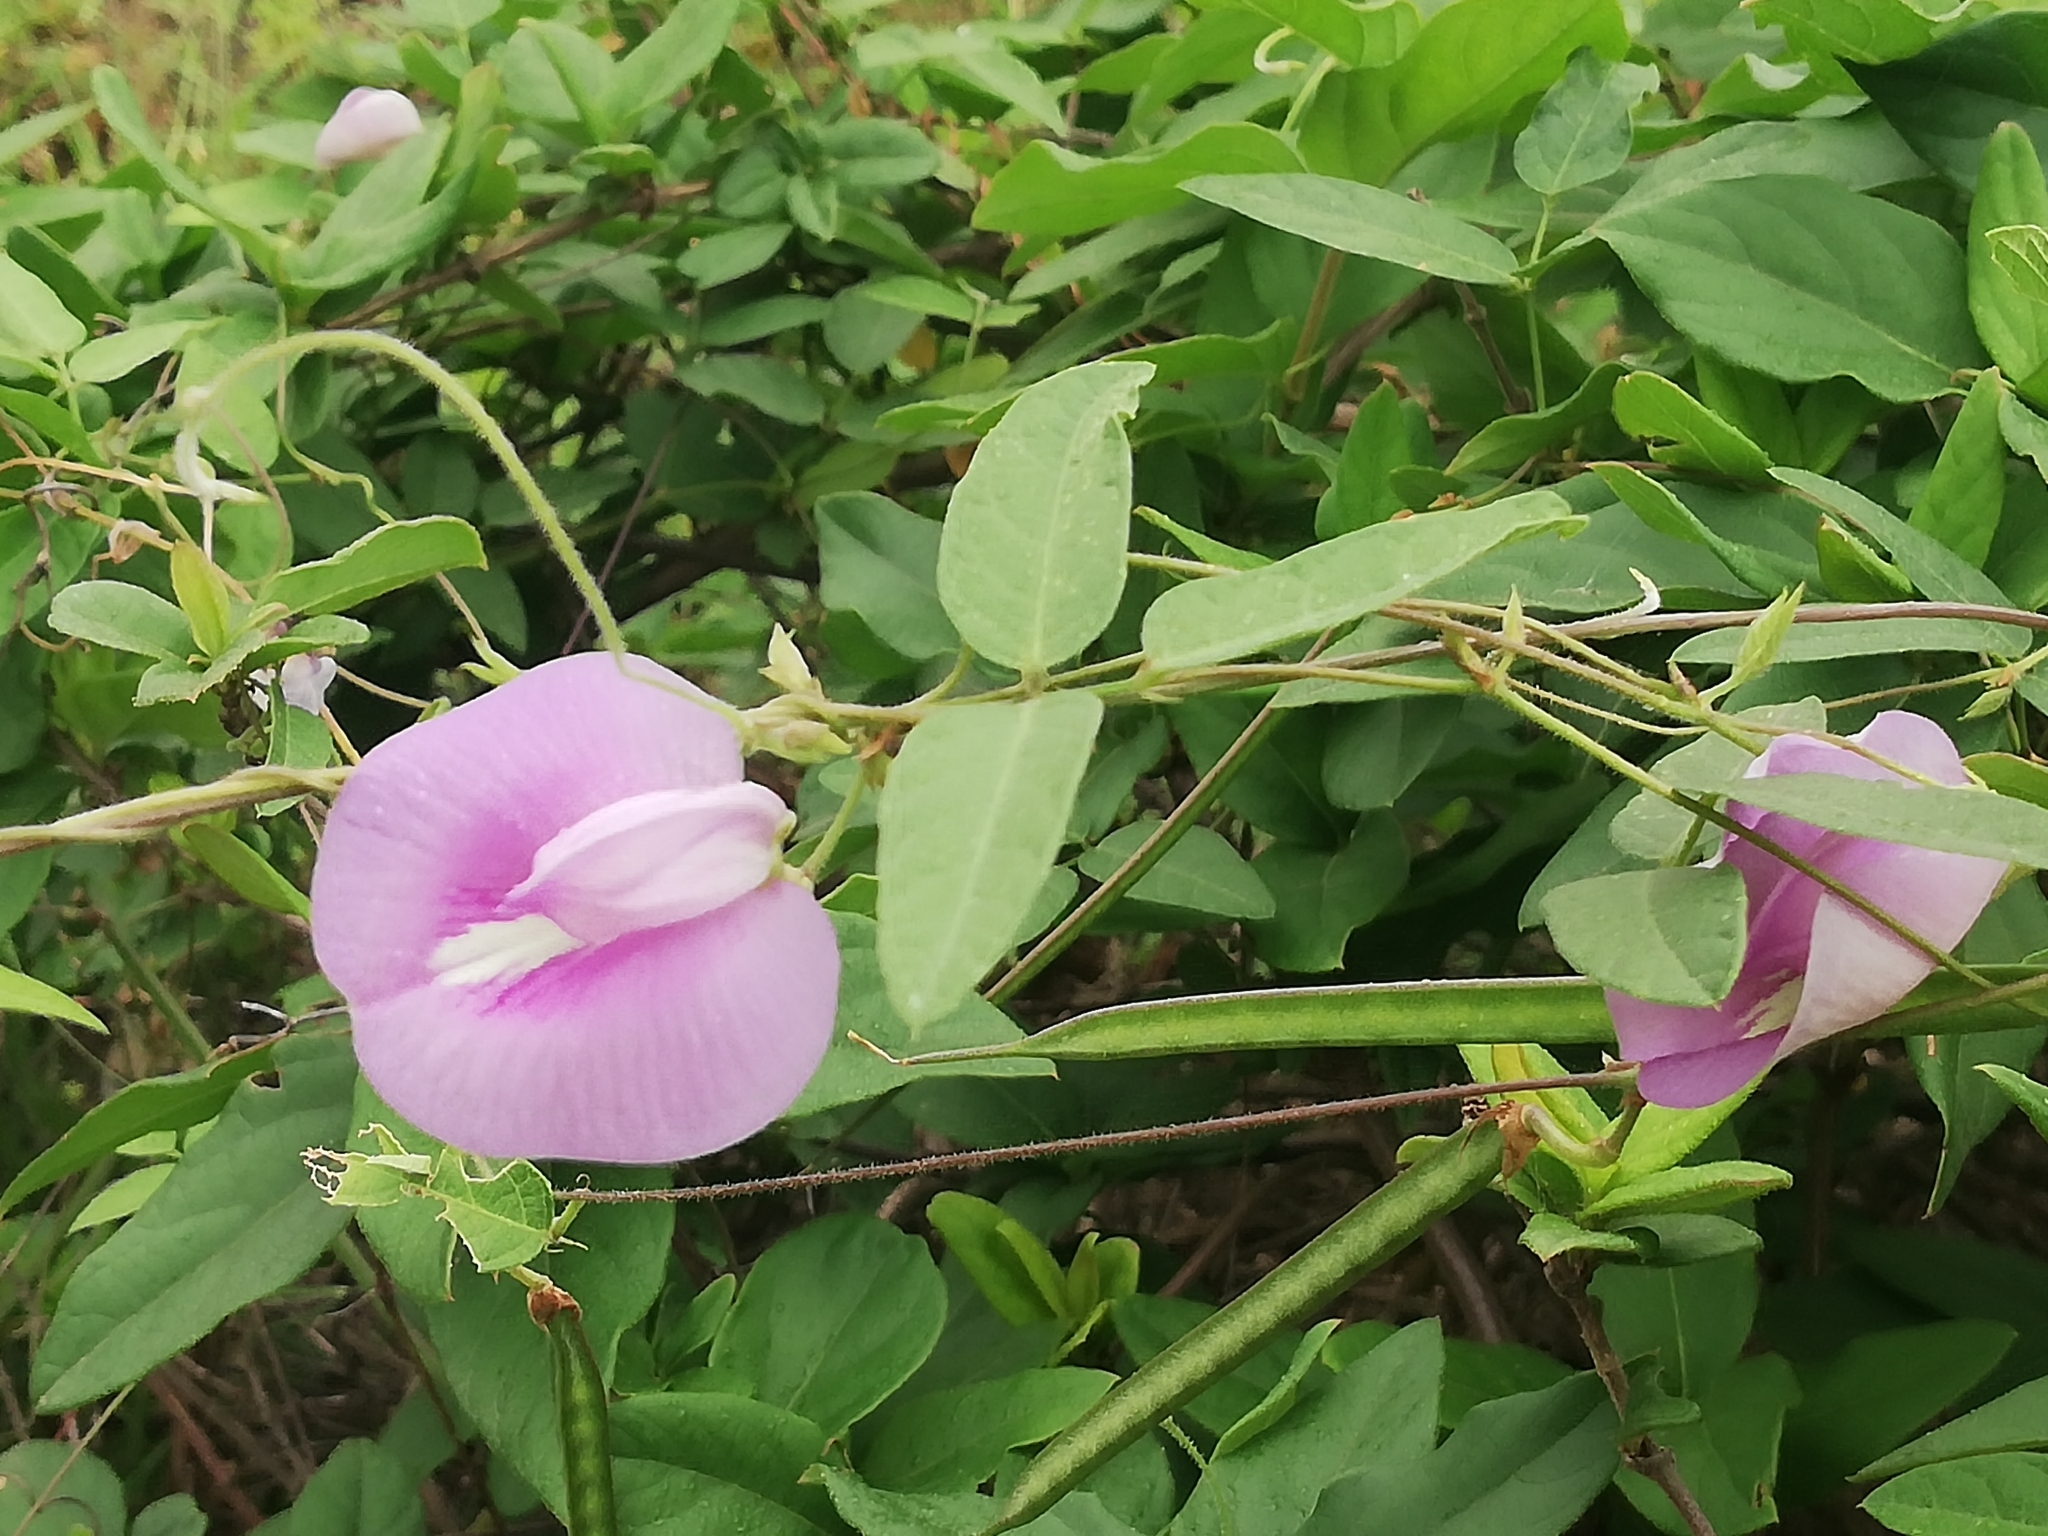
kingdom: Plantae
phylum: Tracheophyta
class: Magnoliopsida
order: Fabales
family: Fabaceae
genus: Centrosema
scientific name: Centrosema virginianum
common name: Butterfly-pea
